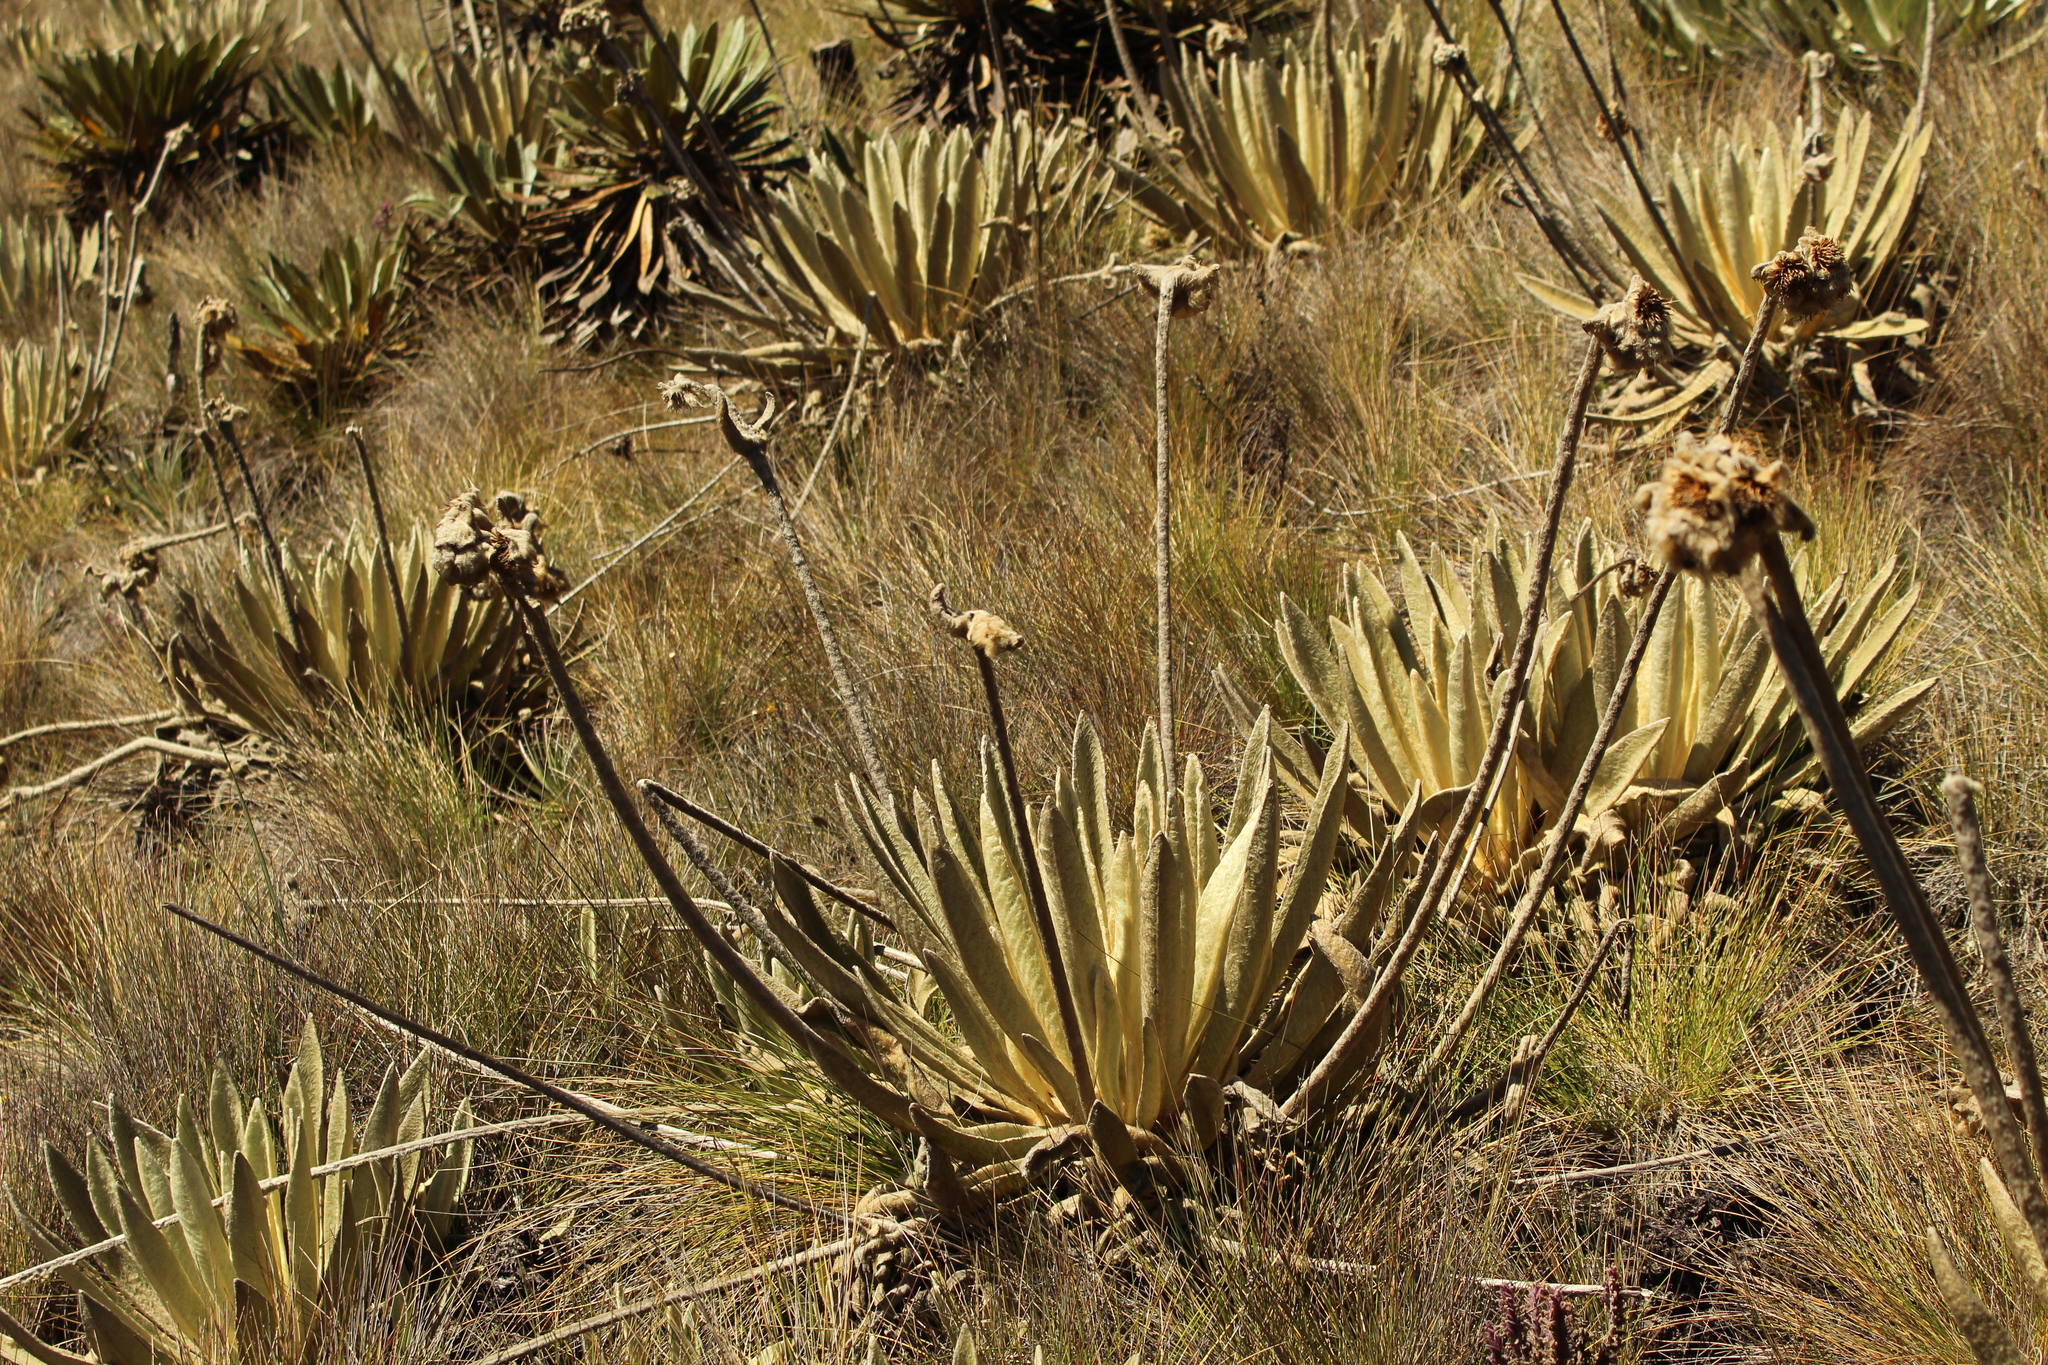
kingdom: Plantae
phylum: Tracheophyta
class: Magnoliopsida
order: Asterales
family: Asteraceae
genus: Espeletia
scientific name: Espeletia congestiflora
